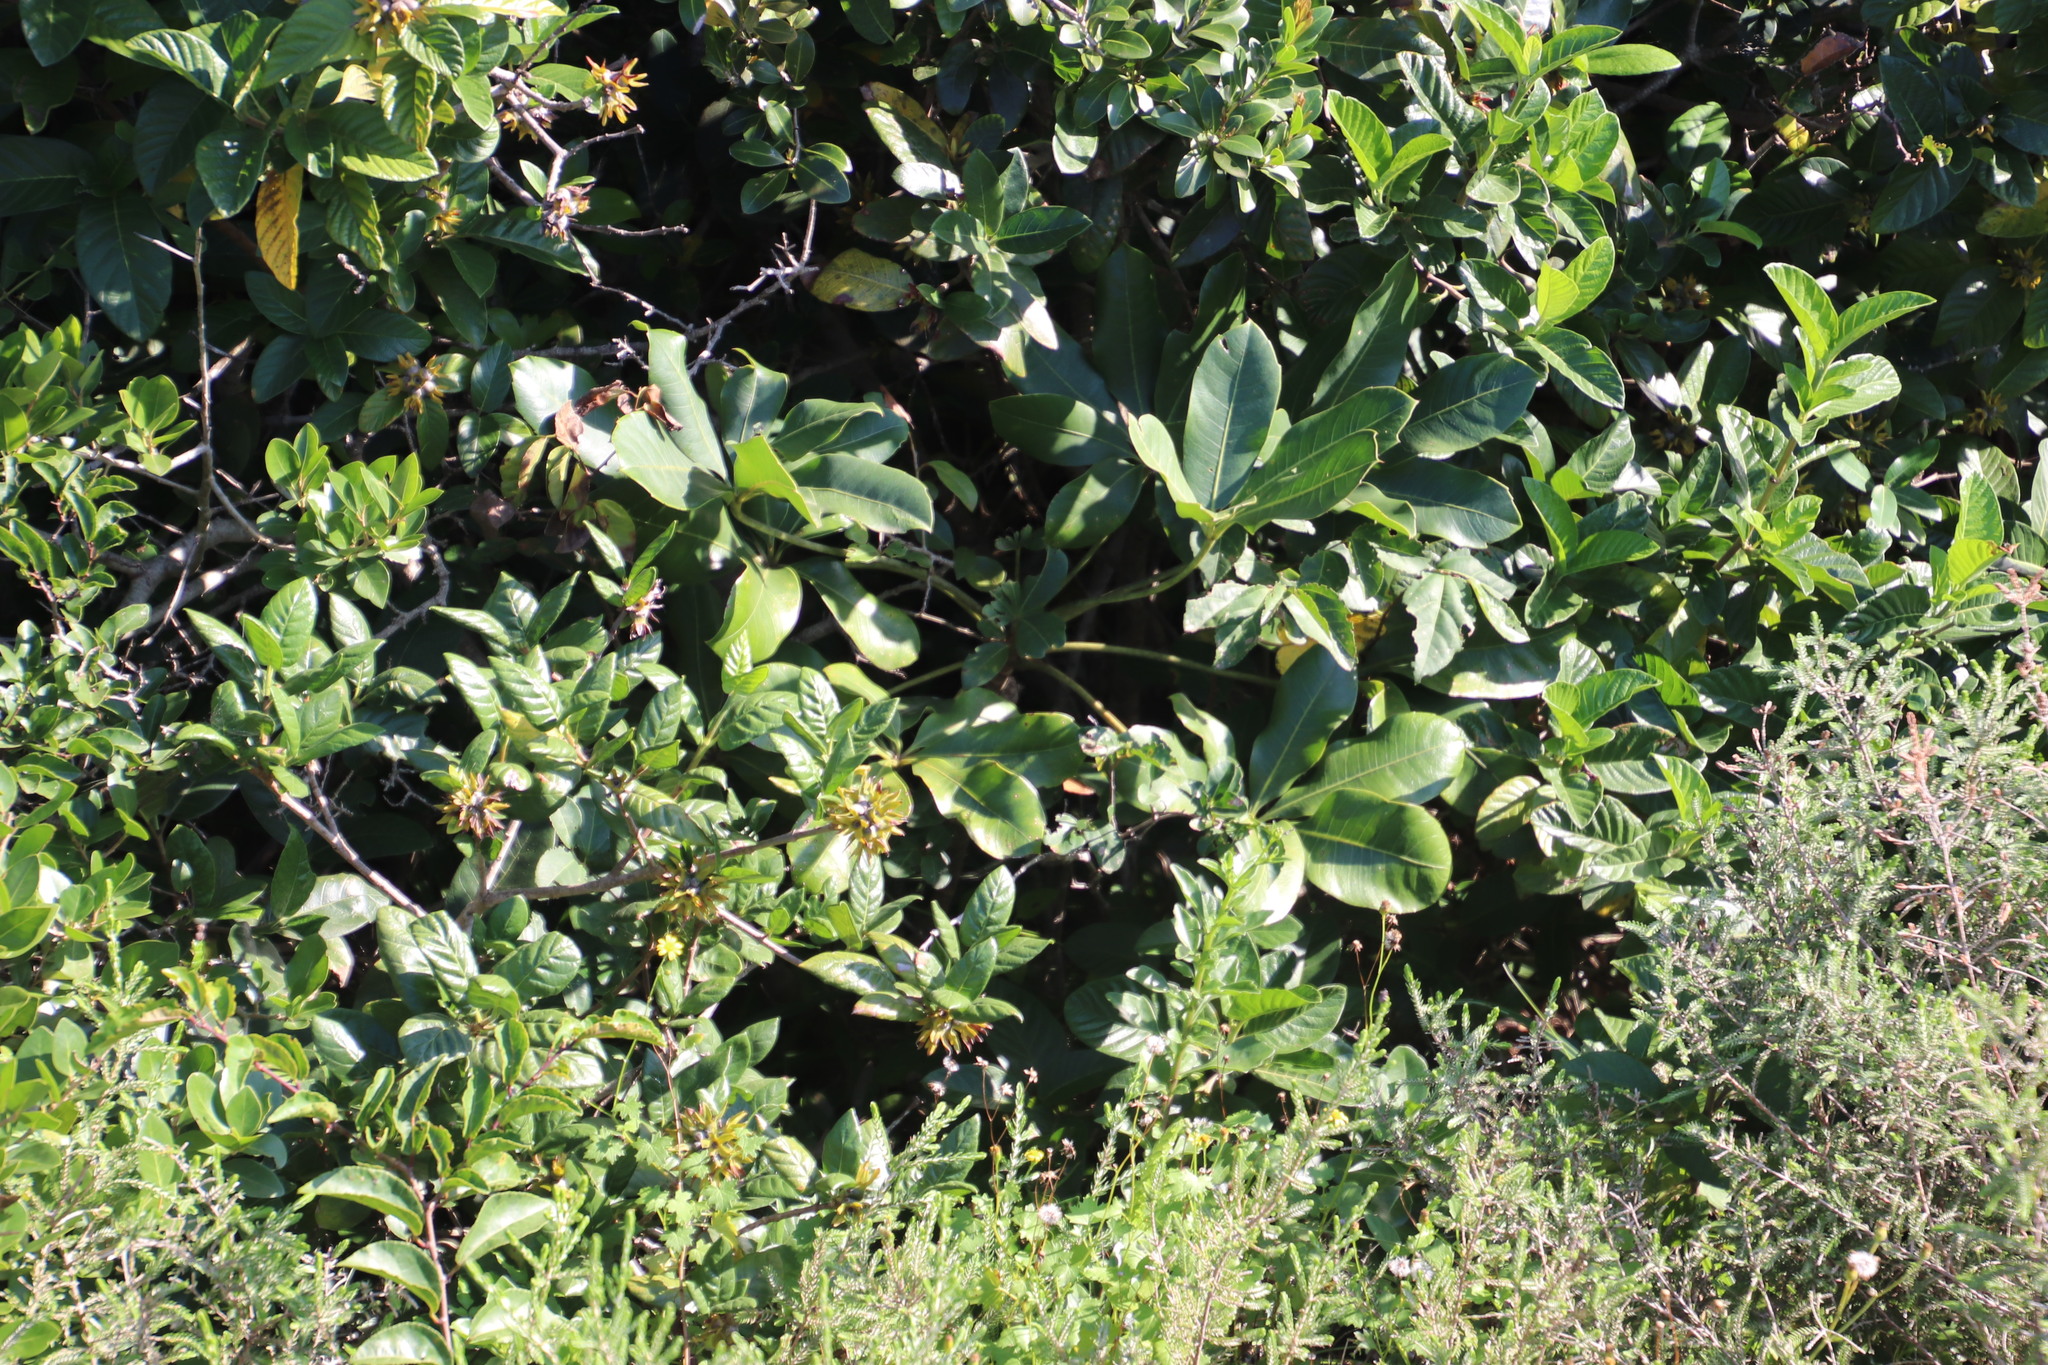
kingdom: Plantae
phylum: Tracheophyta
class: Magnoliopsida
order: Apiales
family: Araliaceae
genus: Cussonia
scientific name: Cussonia
